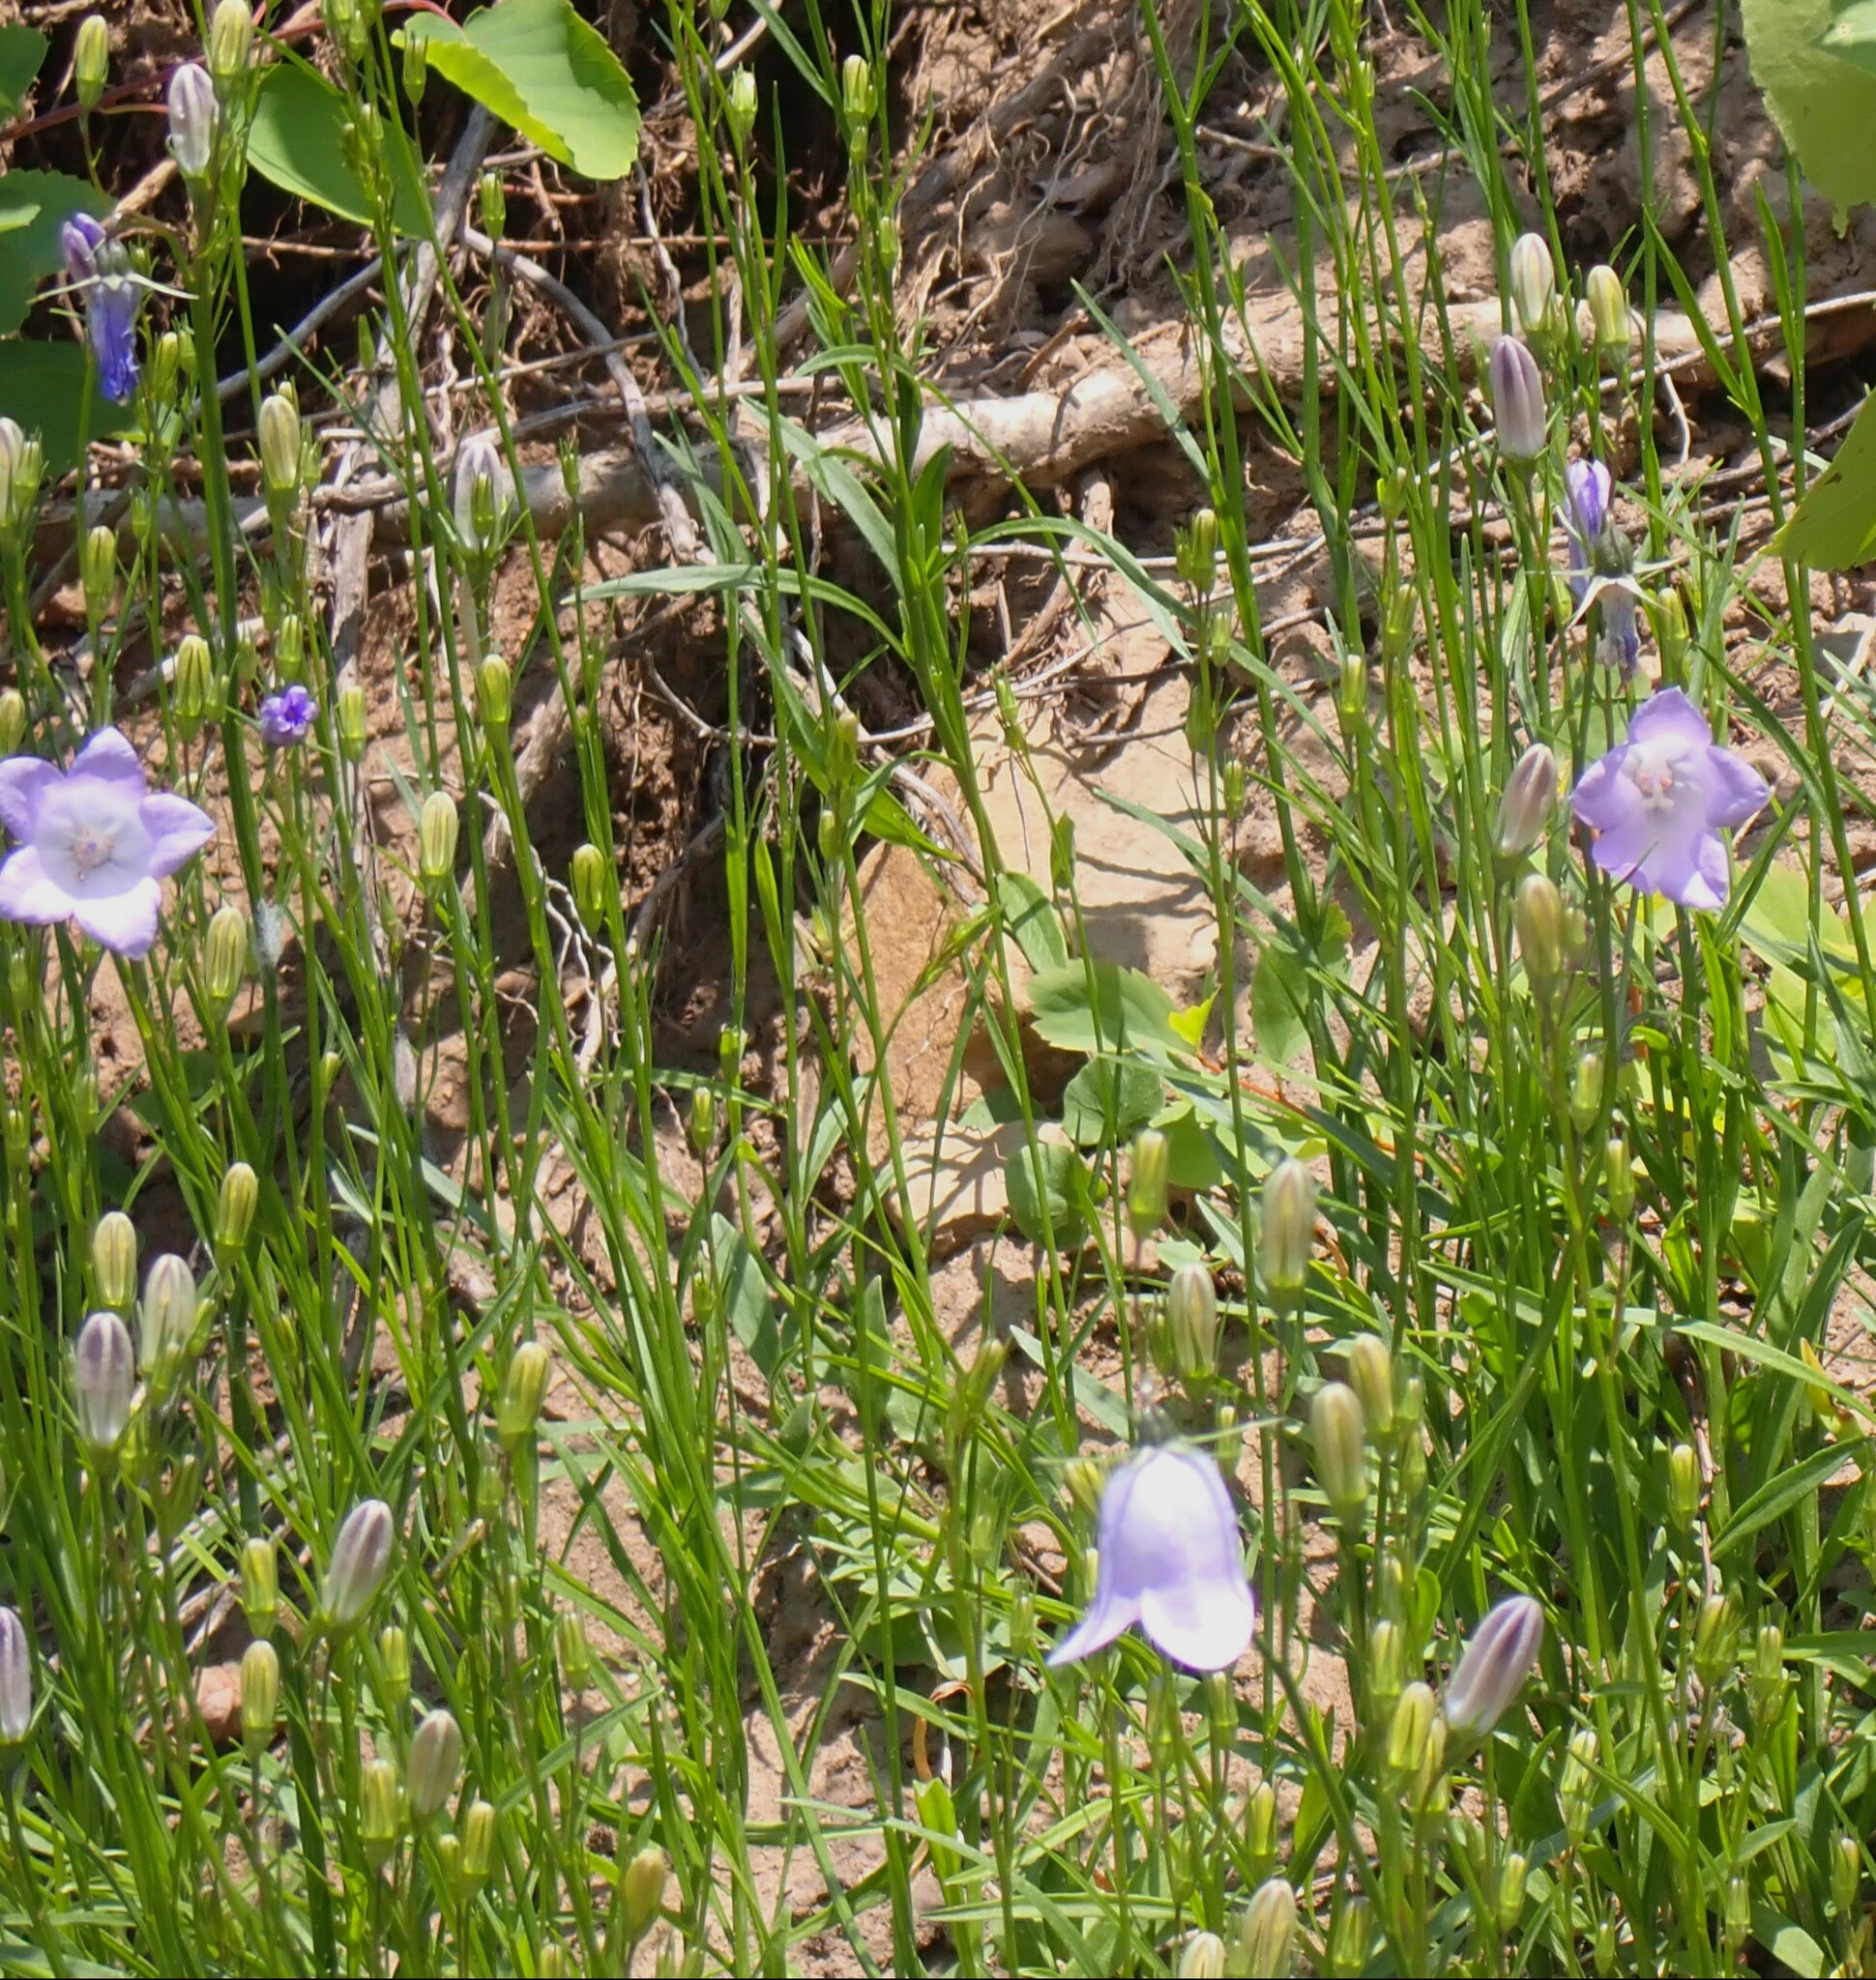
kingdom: Plantae
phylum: Tracheophyta
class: Magnoliopsida
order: Asterales
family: Campanulaceae
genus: Campanula
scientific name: Campanula alaskana
